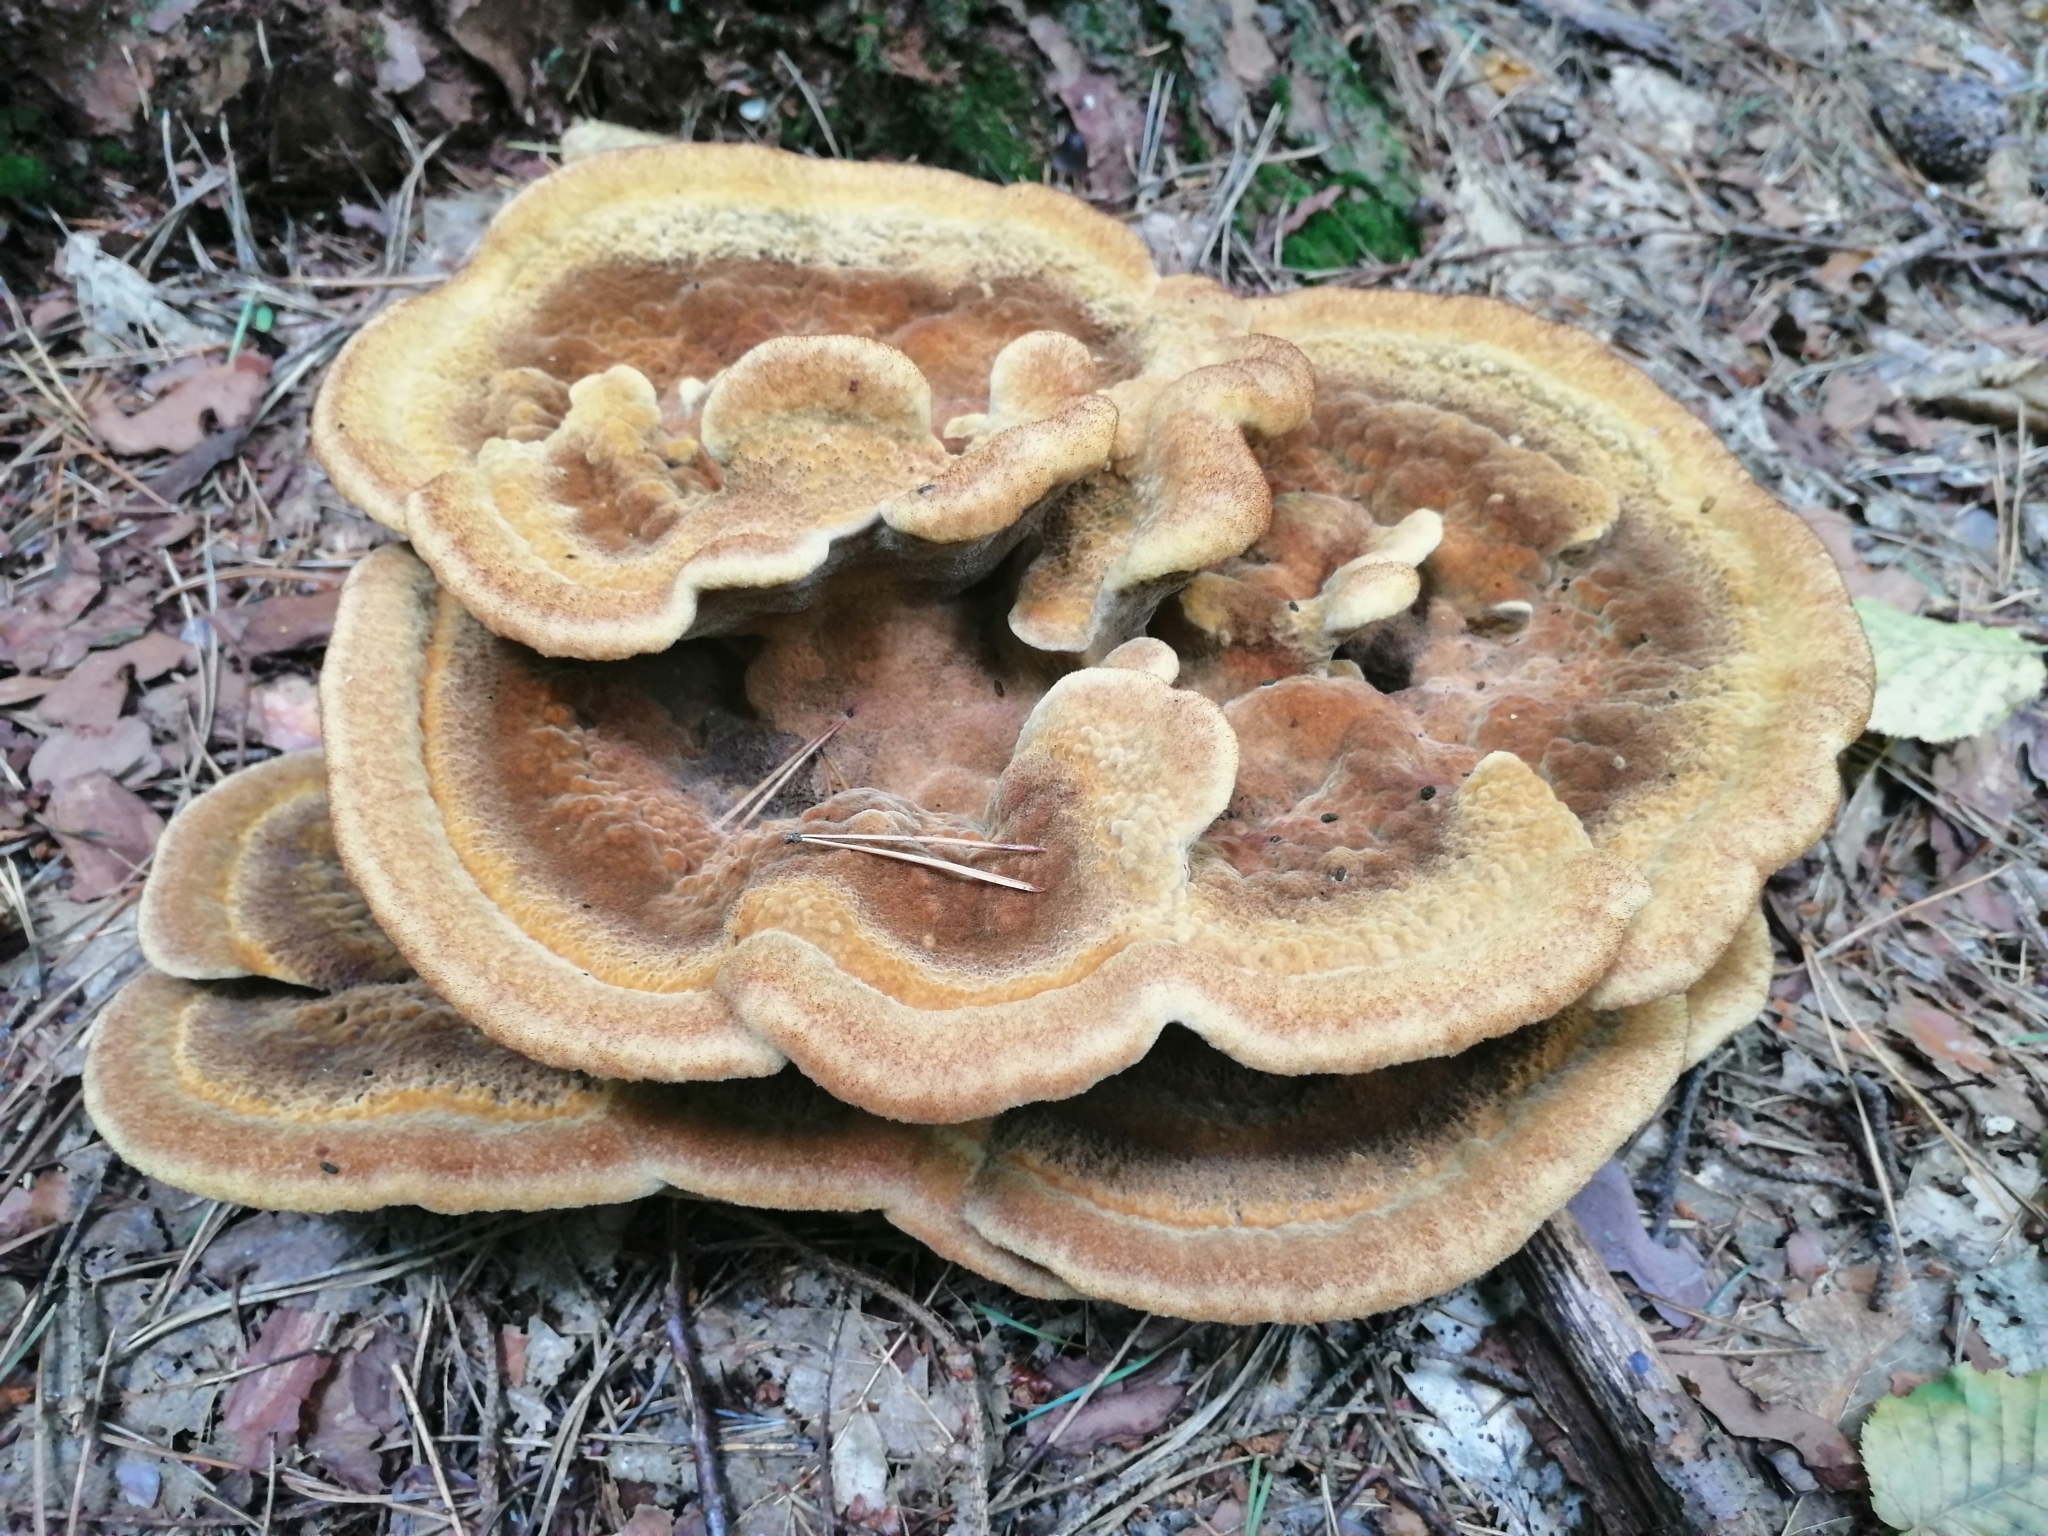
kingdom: Fungi
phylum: Basidiomycota
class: Agaricomycetes
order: Polyporales
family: Laetiporaceae
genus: Phaeolus
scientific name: Phaeolus schweinitzii
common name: Dyer's mazegill
